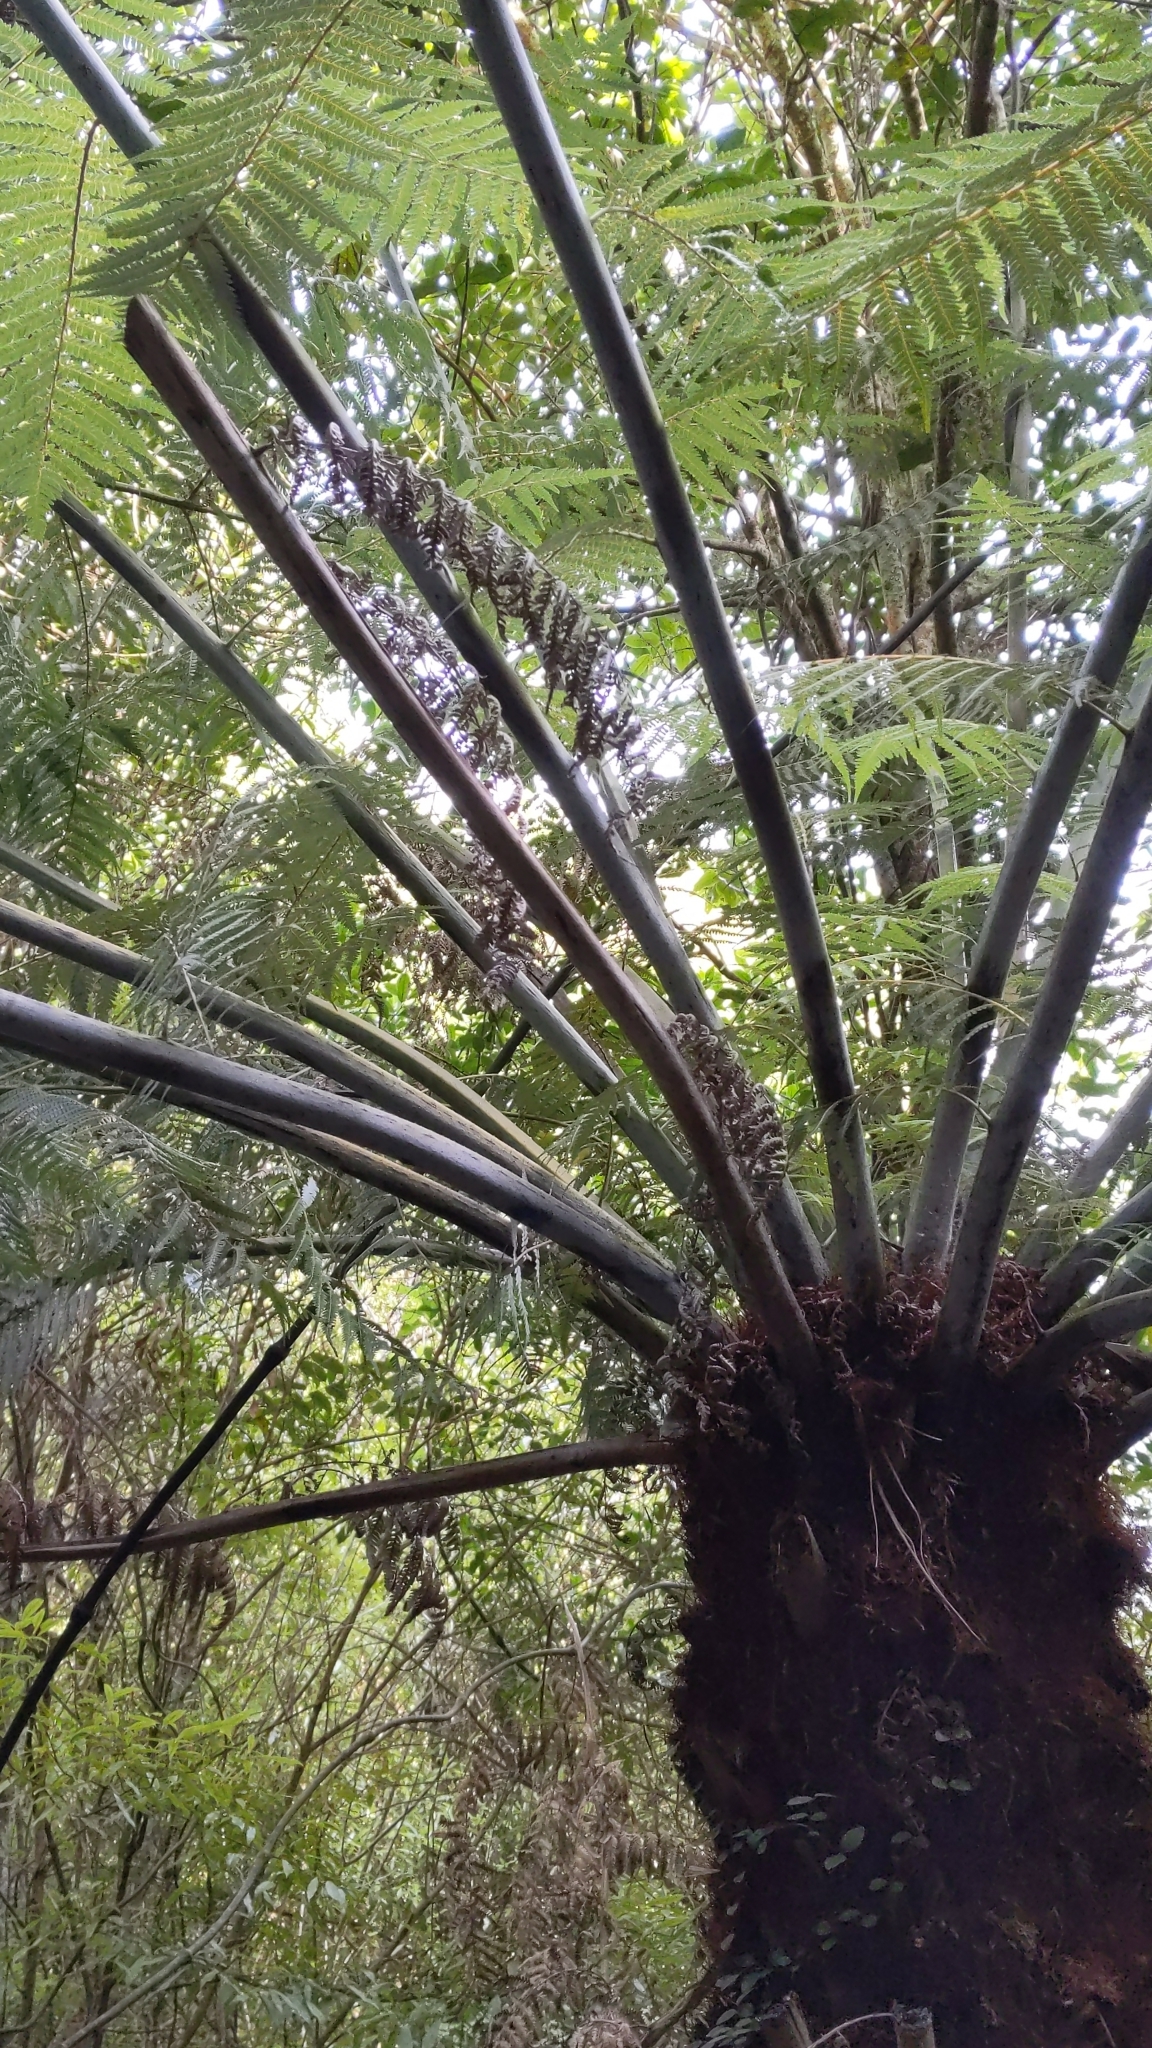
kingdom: Plantae
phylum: Tracheophyta
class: Polypodiopsida
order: Cyatheales
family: Cyatheaceae
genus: Alsophila
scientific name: Alsophila dealbata
